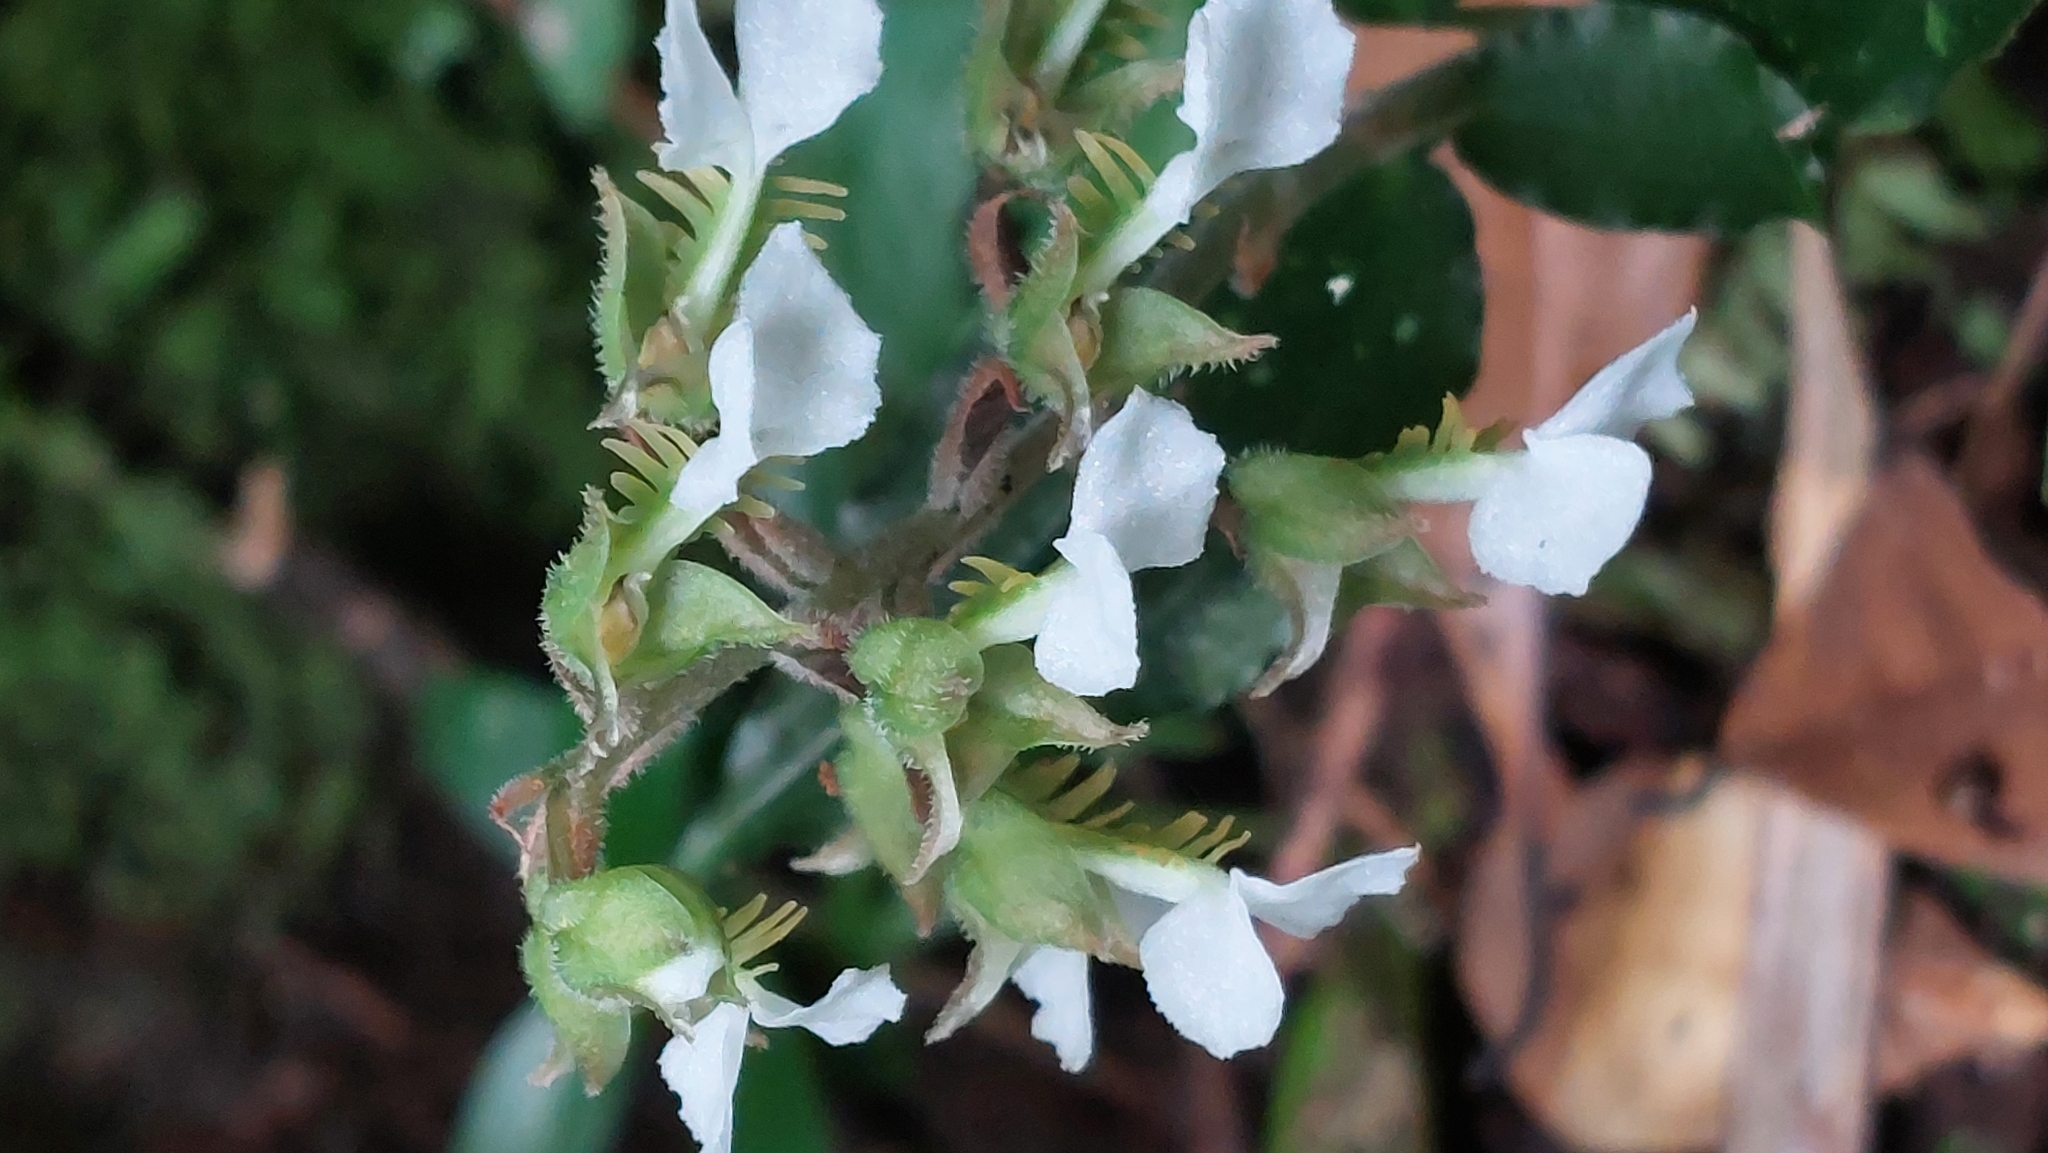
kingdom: Plantae
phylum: Tracheophyta
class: Liliopsida
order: Asparagales
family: Orchidaceae
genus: Odontochilus
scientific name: Odontochilus brevistylis
